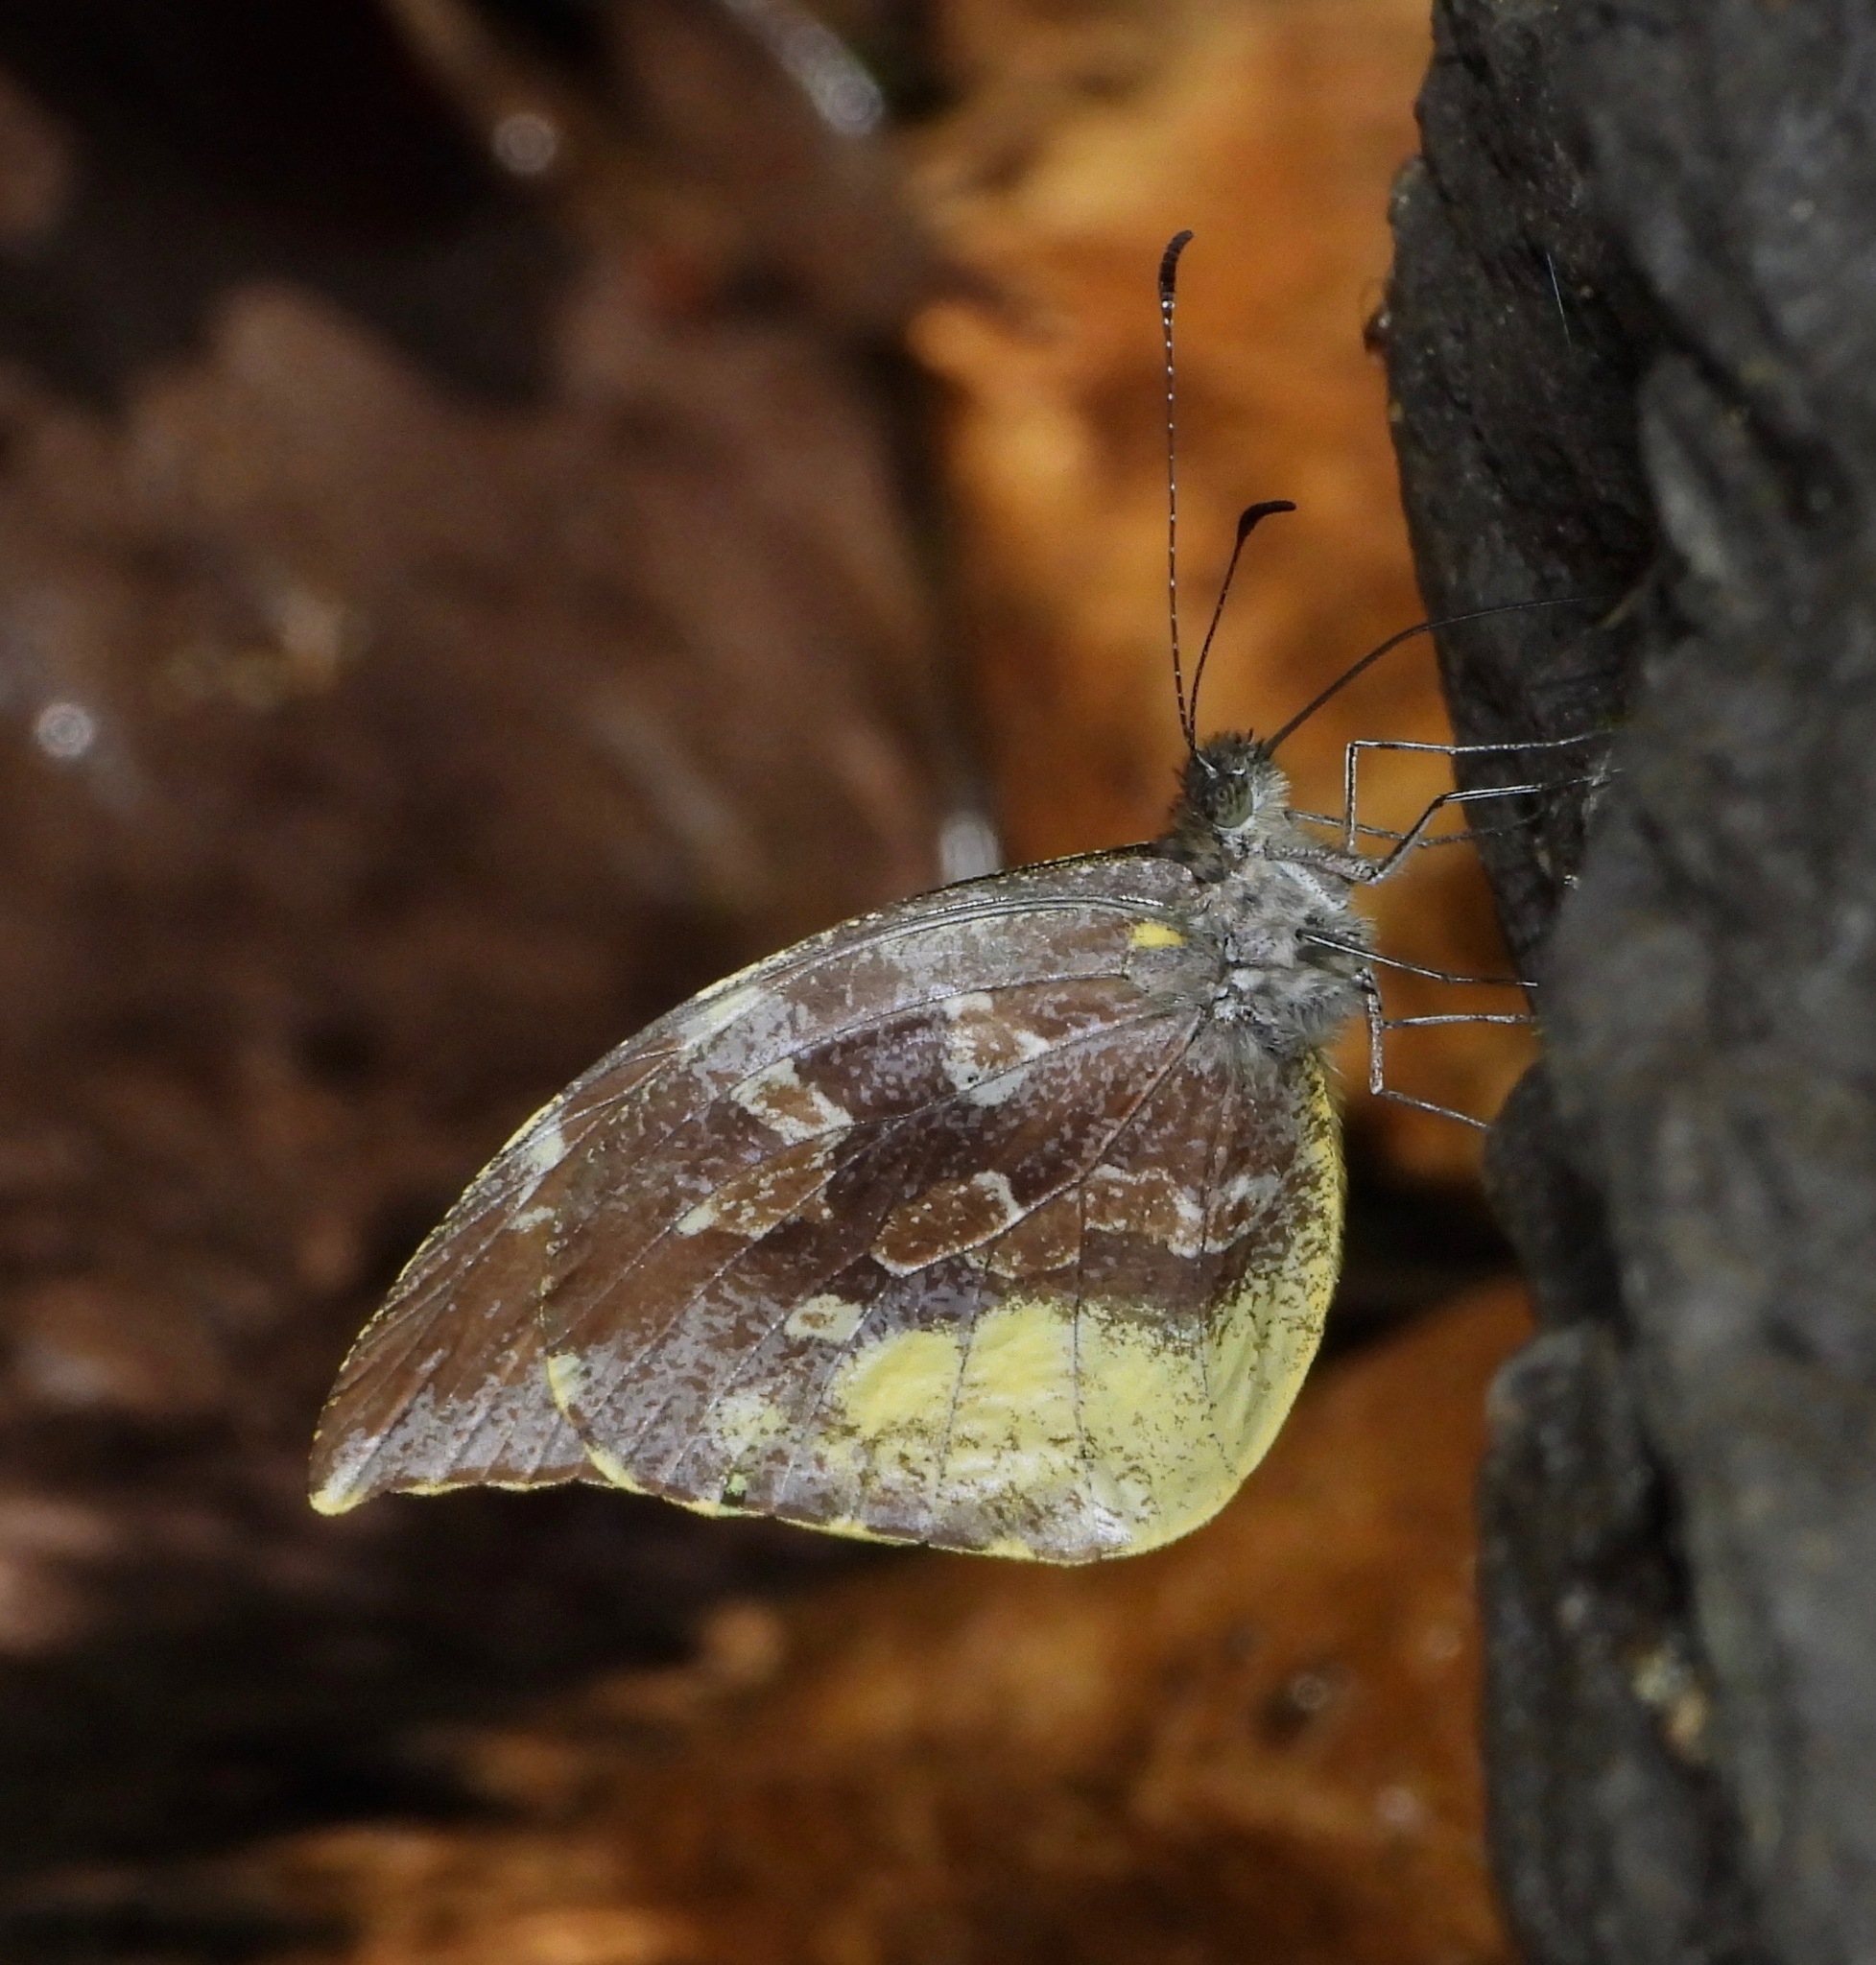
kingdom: Animalia
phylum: Arthropoda
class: Insecta
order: Lepidoptera
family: Pieridae
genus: Lieinix
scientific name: Lieinix nemesis
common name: Frosted mimic-white
